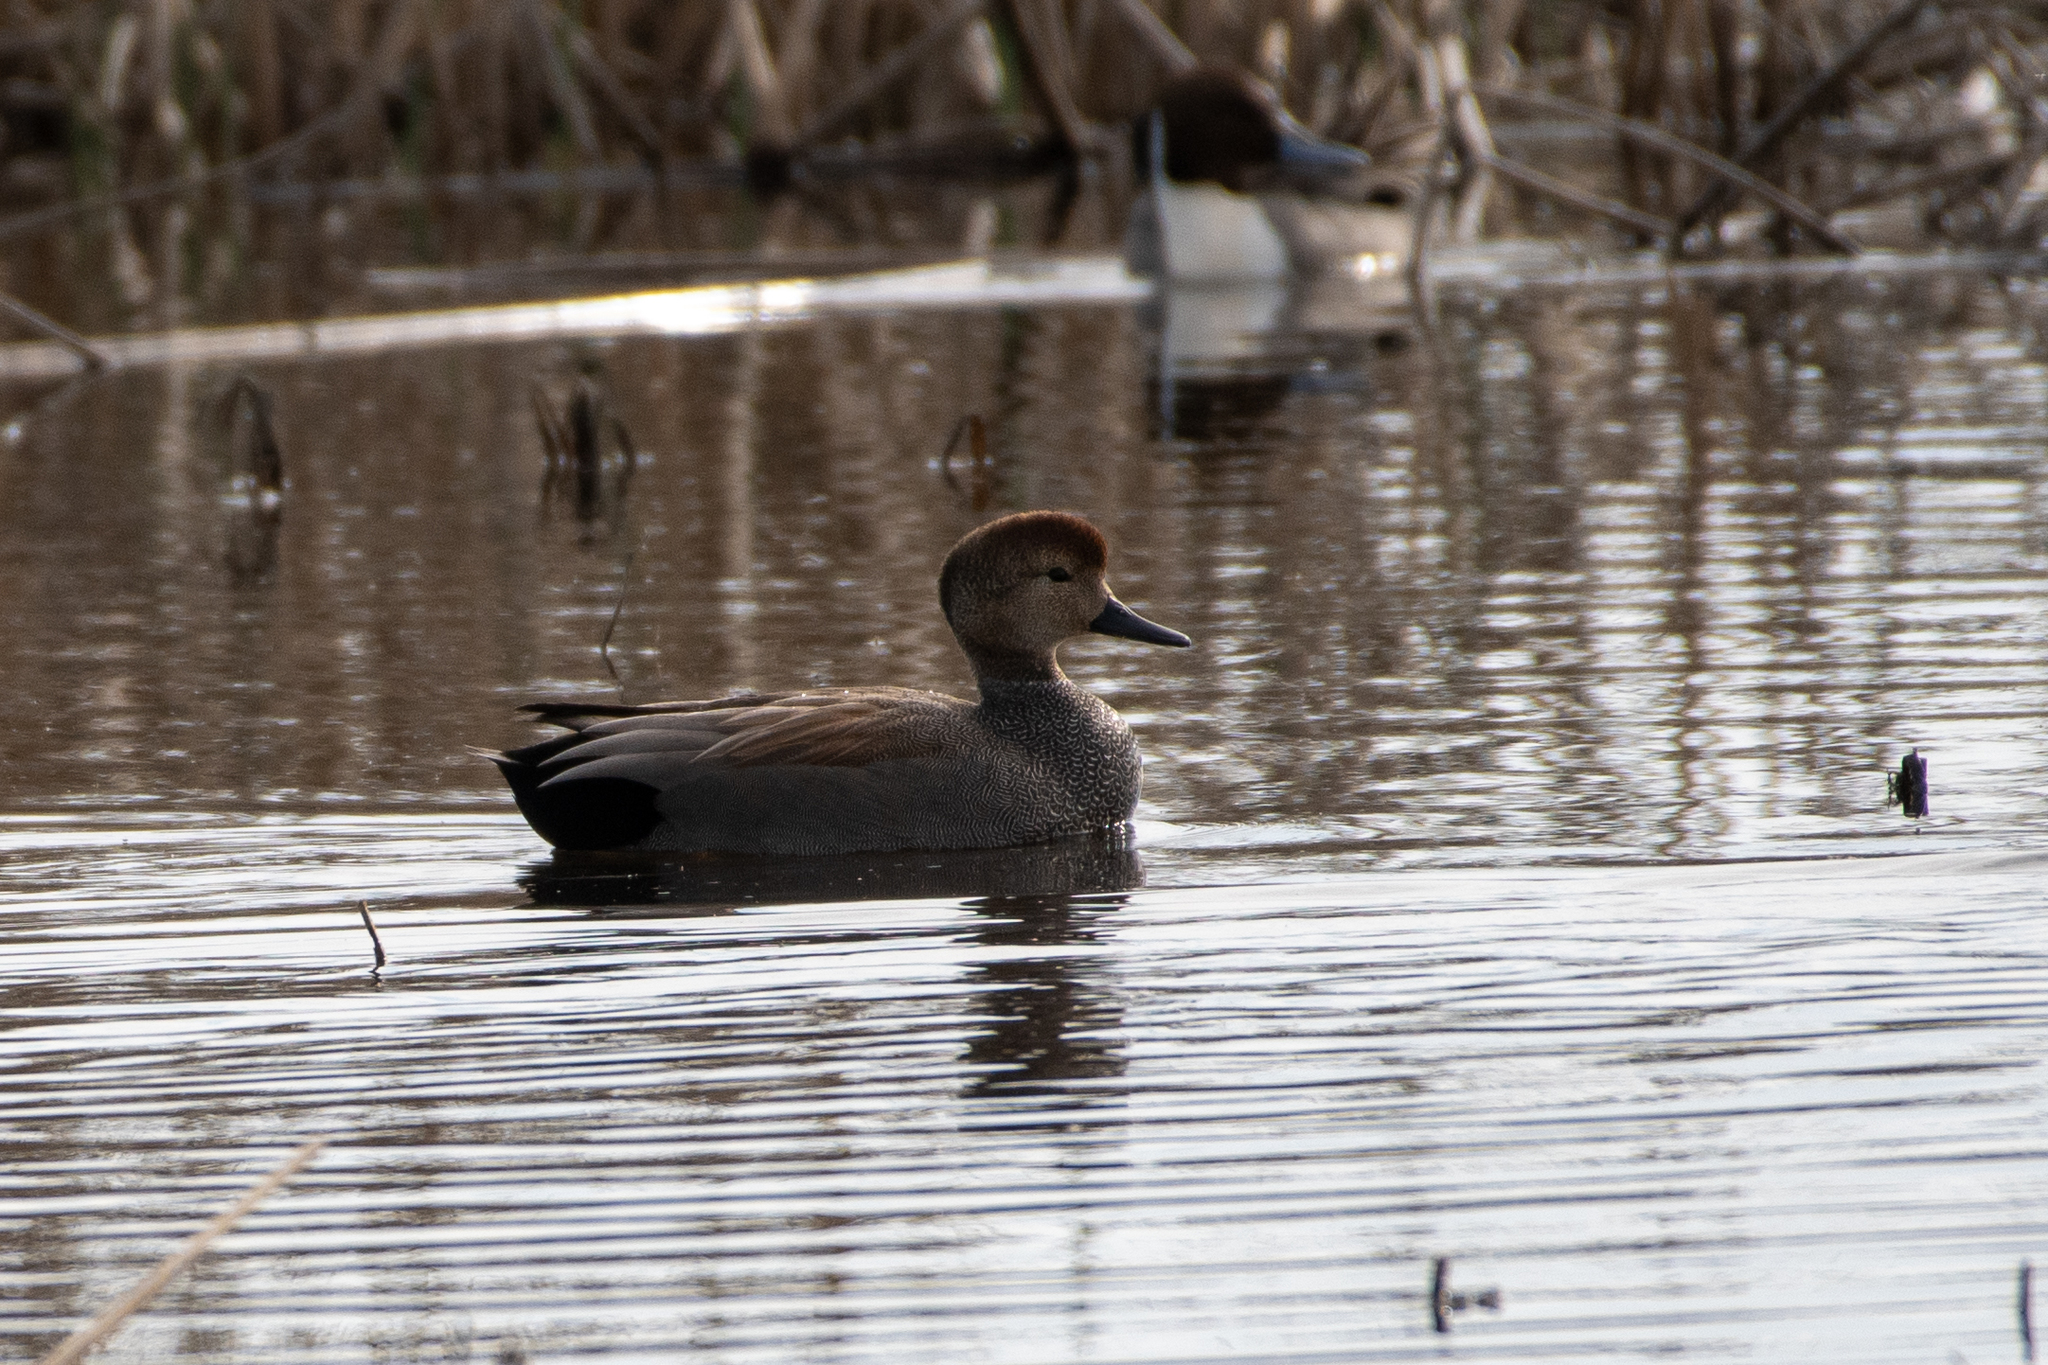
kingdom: Animalia
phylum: Chordata
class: Aves
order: Anseriformes
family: Anatidae
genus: Mareca
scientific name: Mareca strepera
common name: Gadwall
